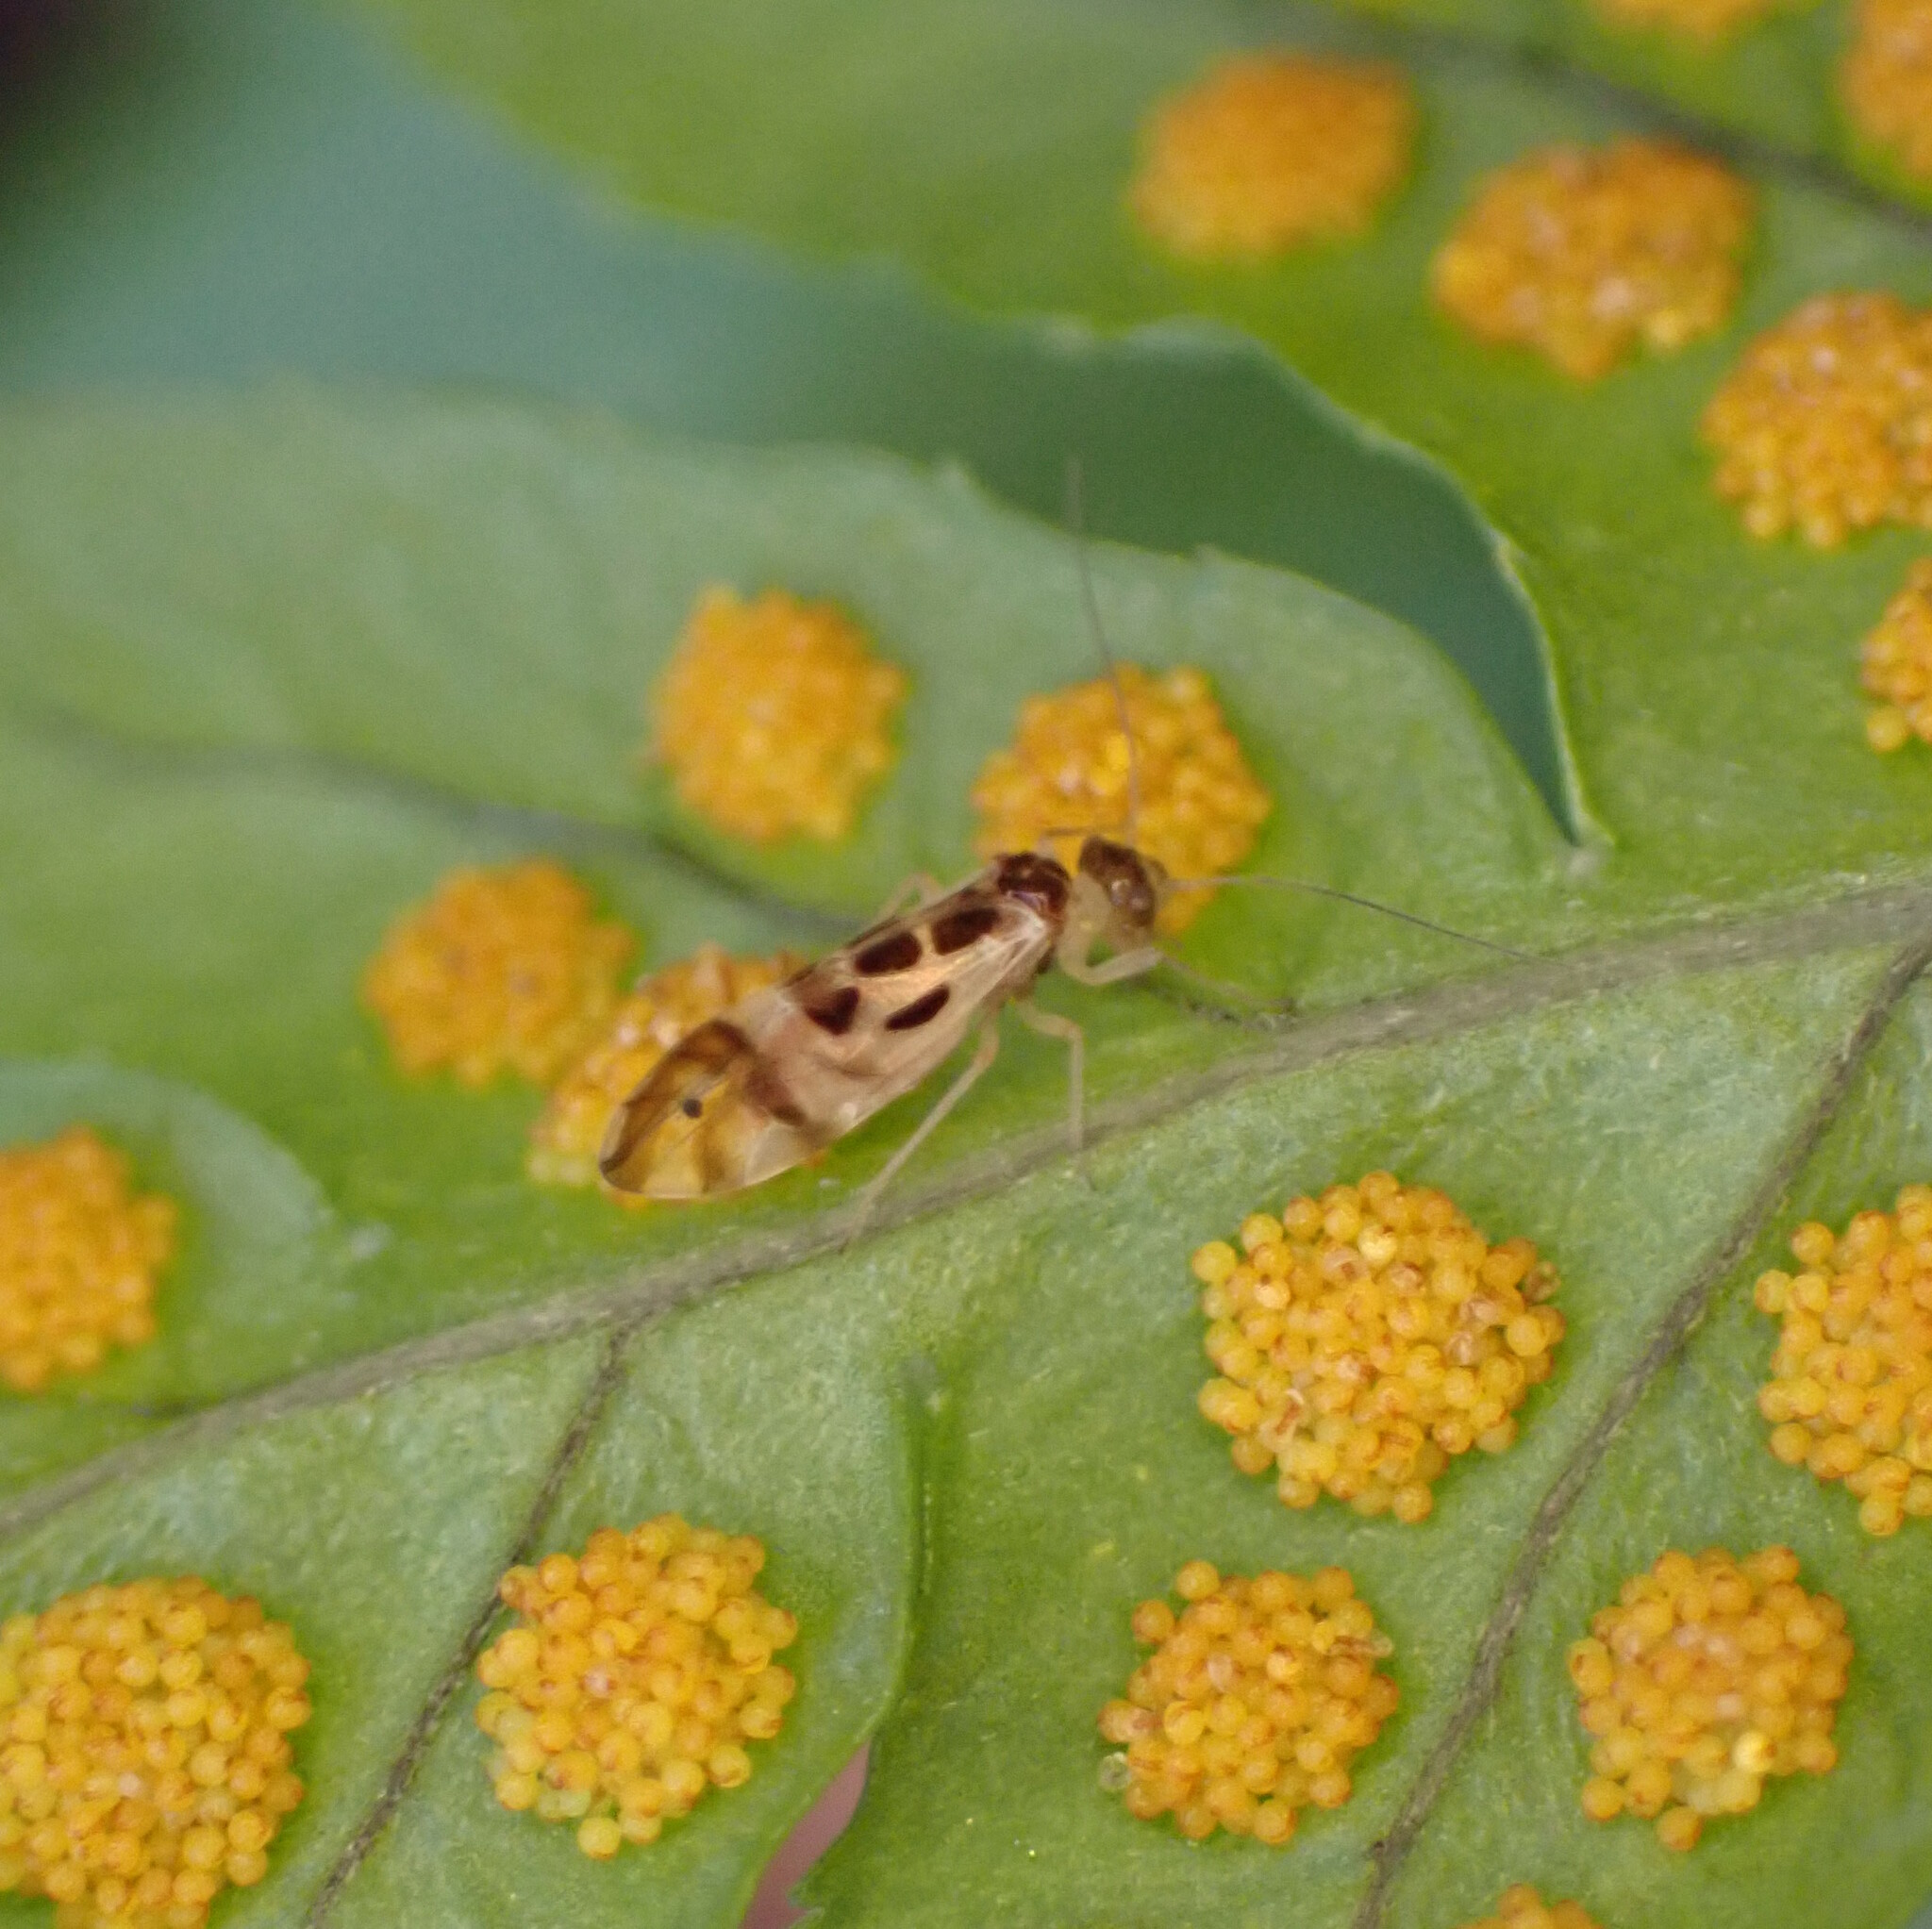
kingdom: Animalia
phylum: Arthropoda
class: Insecta
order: Psocodea
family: Stenopsocidae
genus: Graphopsocus
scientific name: Graphopsocus cruciatus
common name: Lizard bark louse
